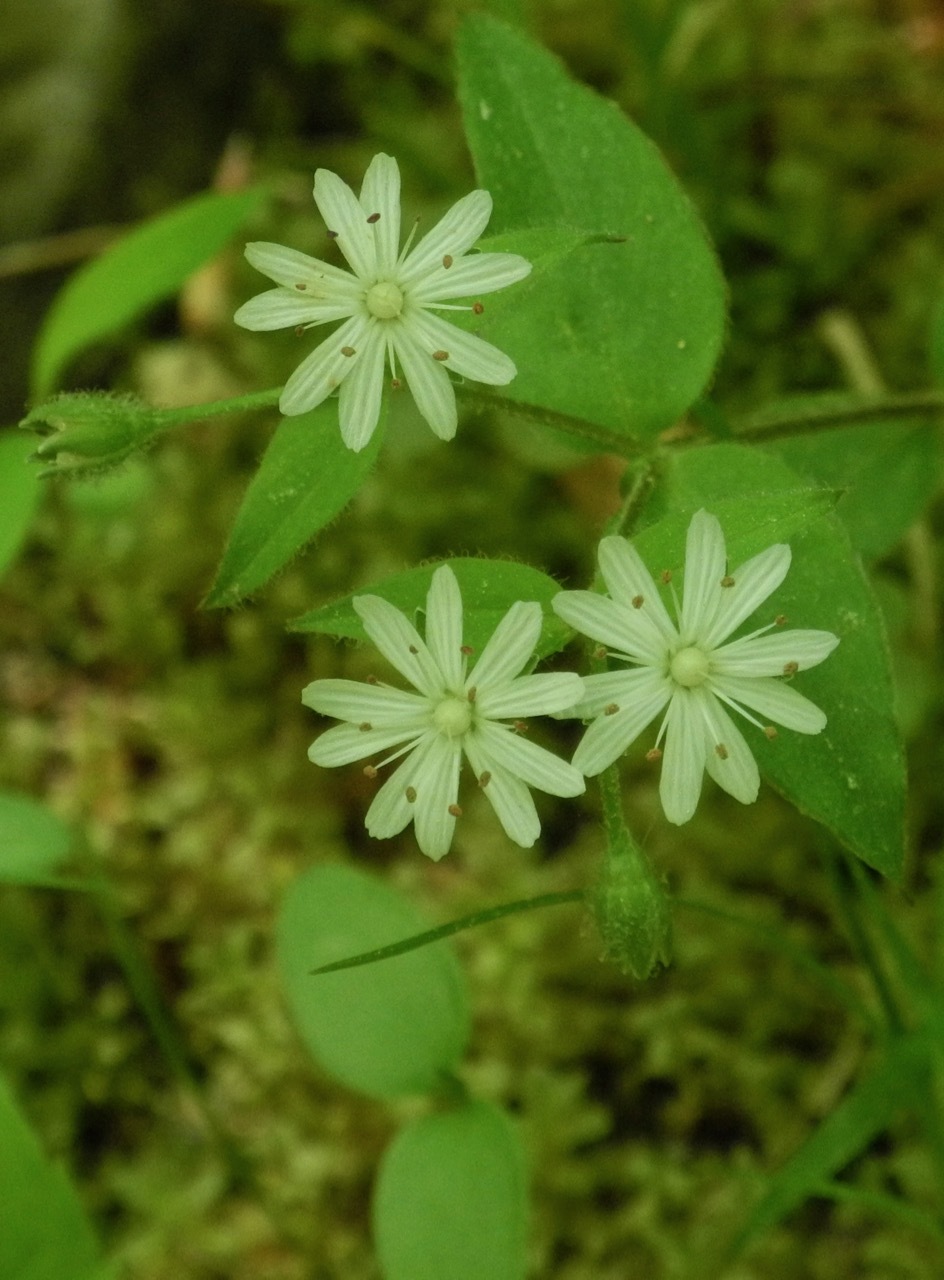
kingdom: Plantae
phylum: Tracheophyta
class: Magnoliopsida
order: Caryophyllales
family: Caryophyllaceae
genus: Stellaria
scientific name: Stellaria pubera
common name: Star chickweed
